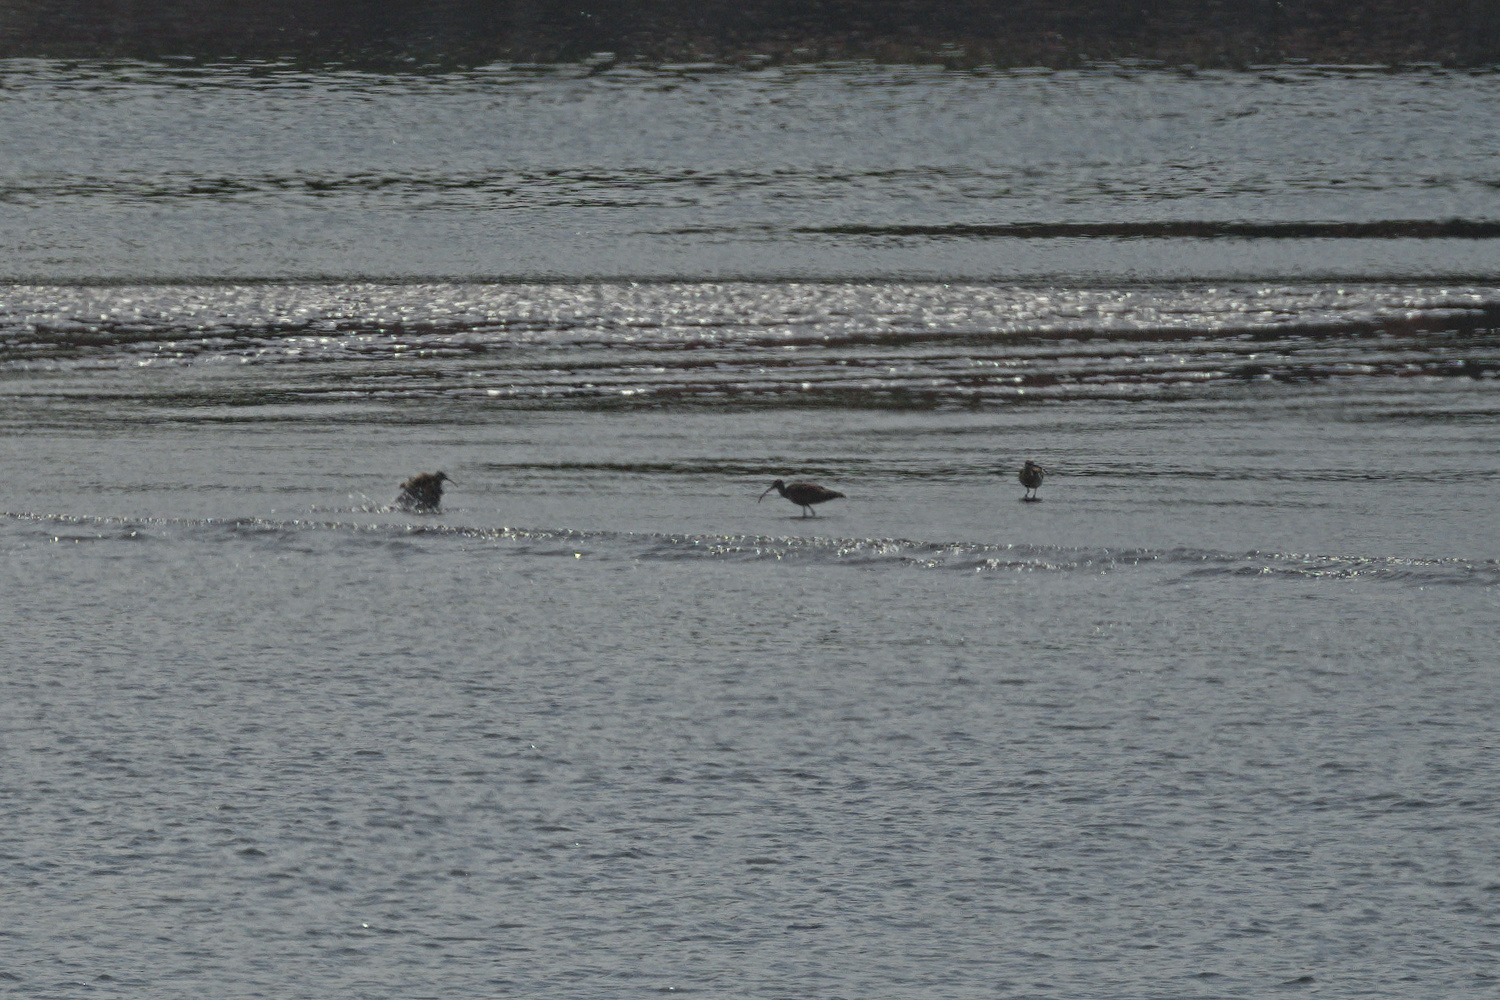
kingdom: Animalia
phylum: Chordata
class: Aves
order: Charadriiformes
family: Scolopacidae
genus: Numenius
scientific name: Numenius phaeopus
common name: Whimbrel
